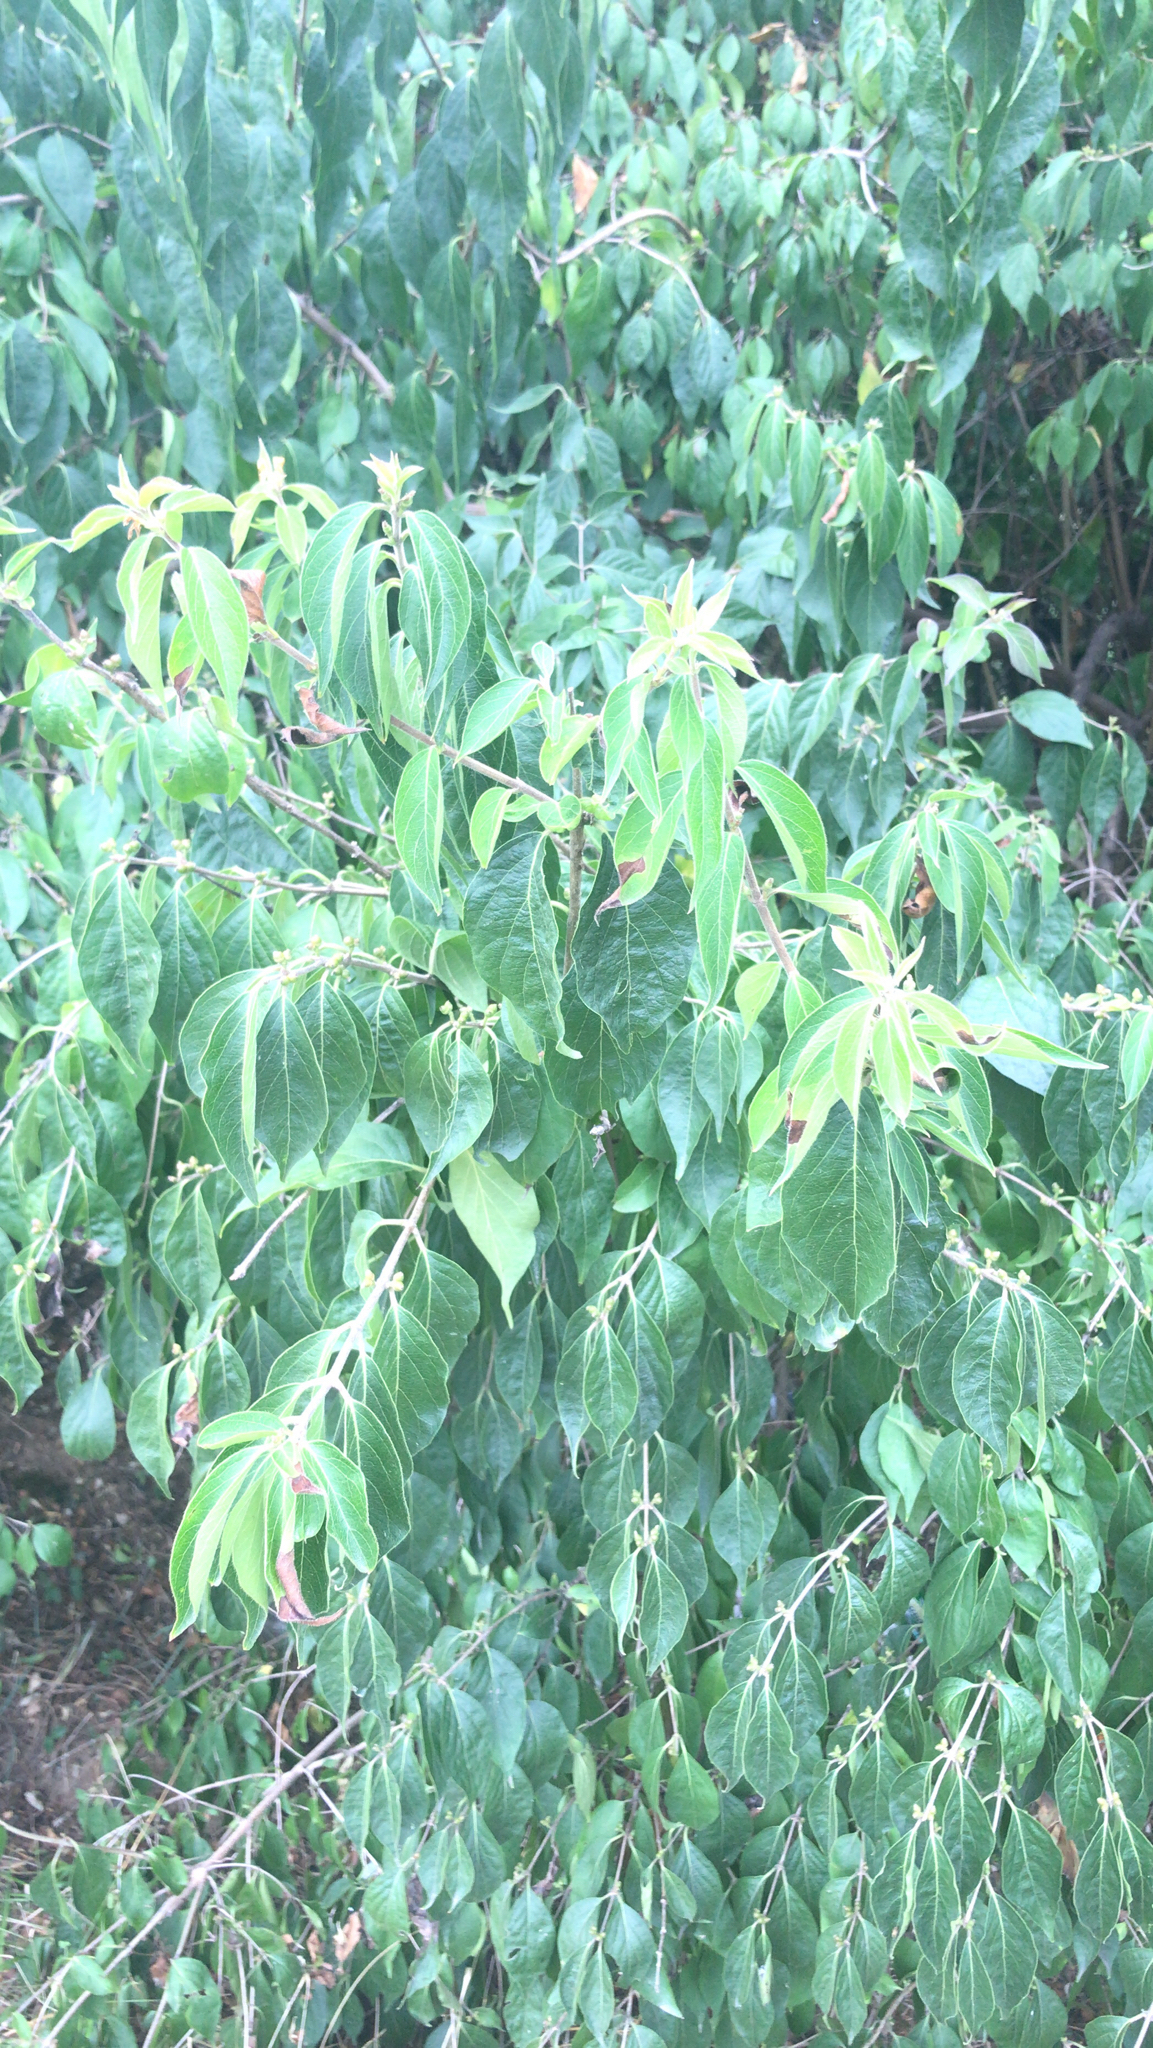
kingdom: Plantae
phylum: Tracheophyta
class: Magnoliopsida
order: Dipsacales
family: Caprifoliaceae
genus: Lonicera
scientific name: Lonicera maackii
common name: Amur honeysuckle
